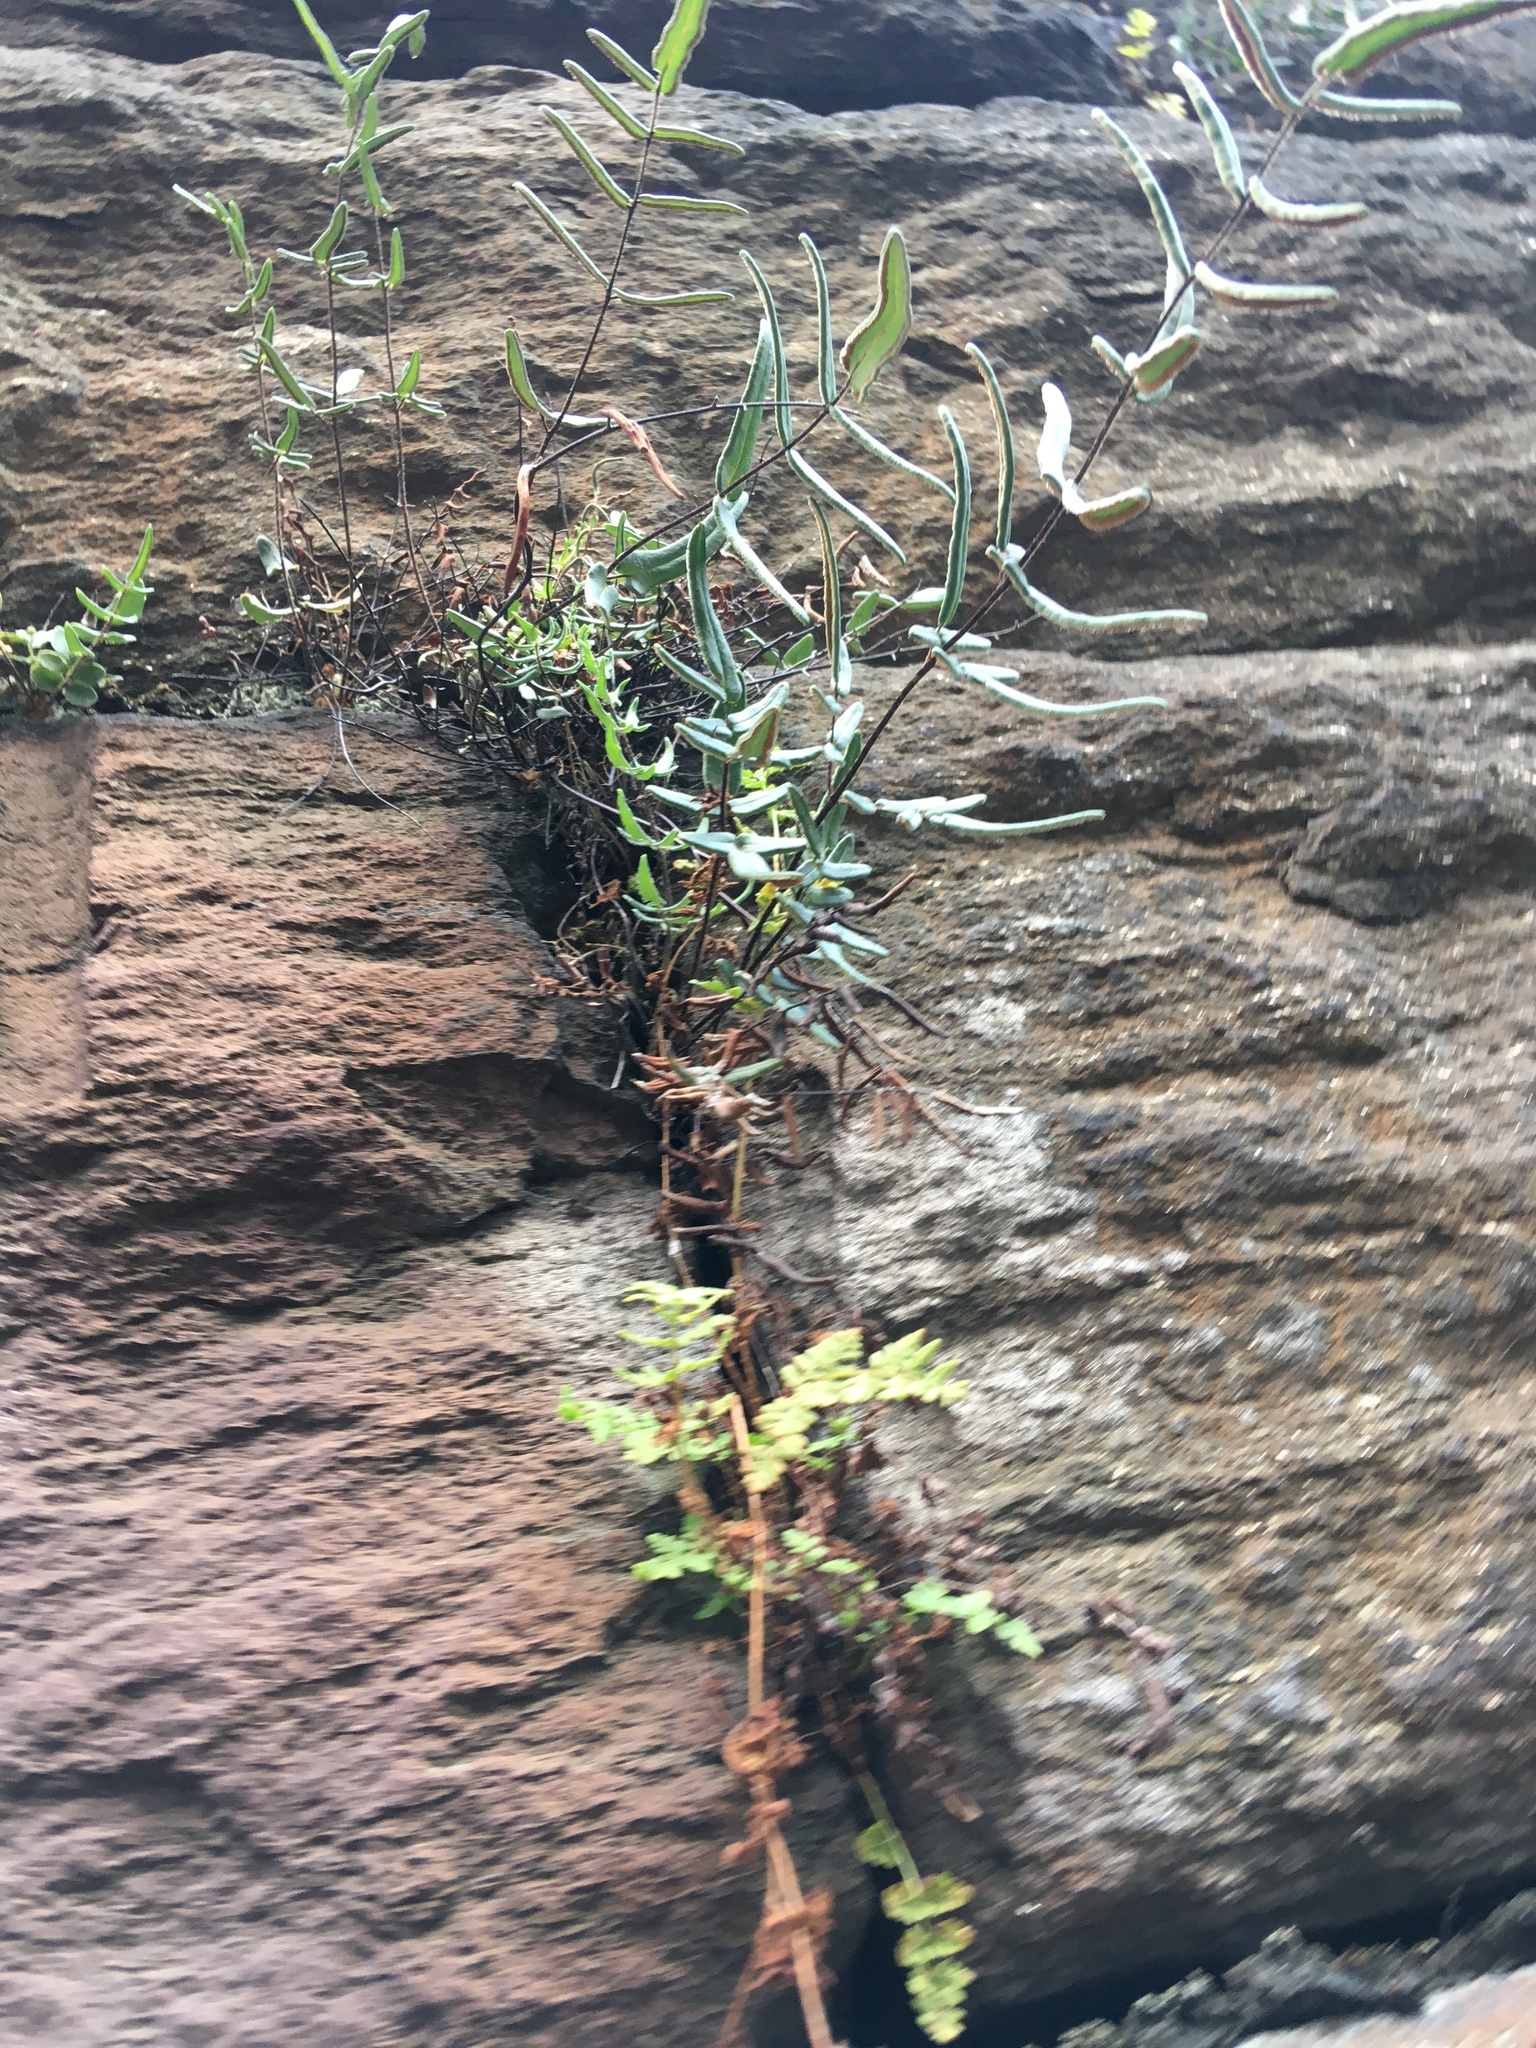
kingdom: Plantae
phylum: Tracheophyta
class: Polypodiopsida
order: Polypodiales
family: Pteridaceae
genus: Pellaea
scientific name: Pellaea atropurpurea
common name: Hairy cliffbrake
